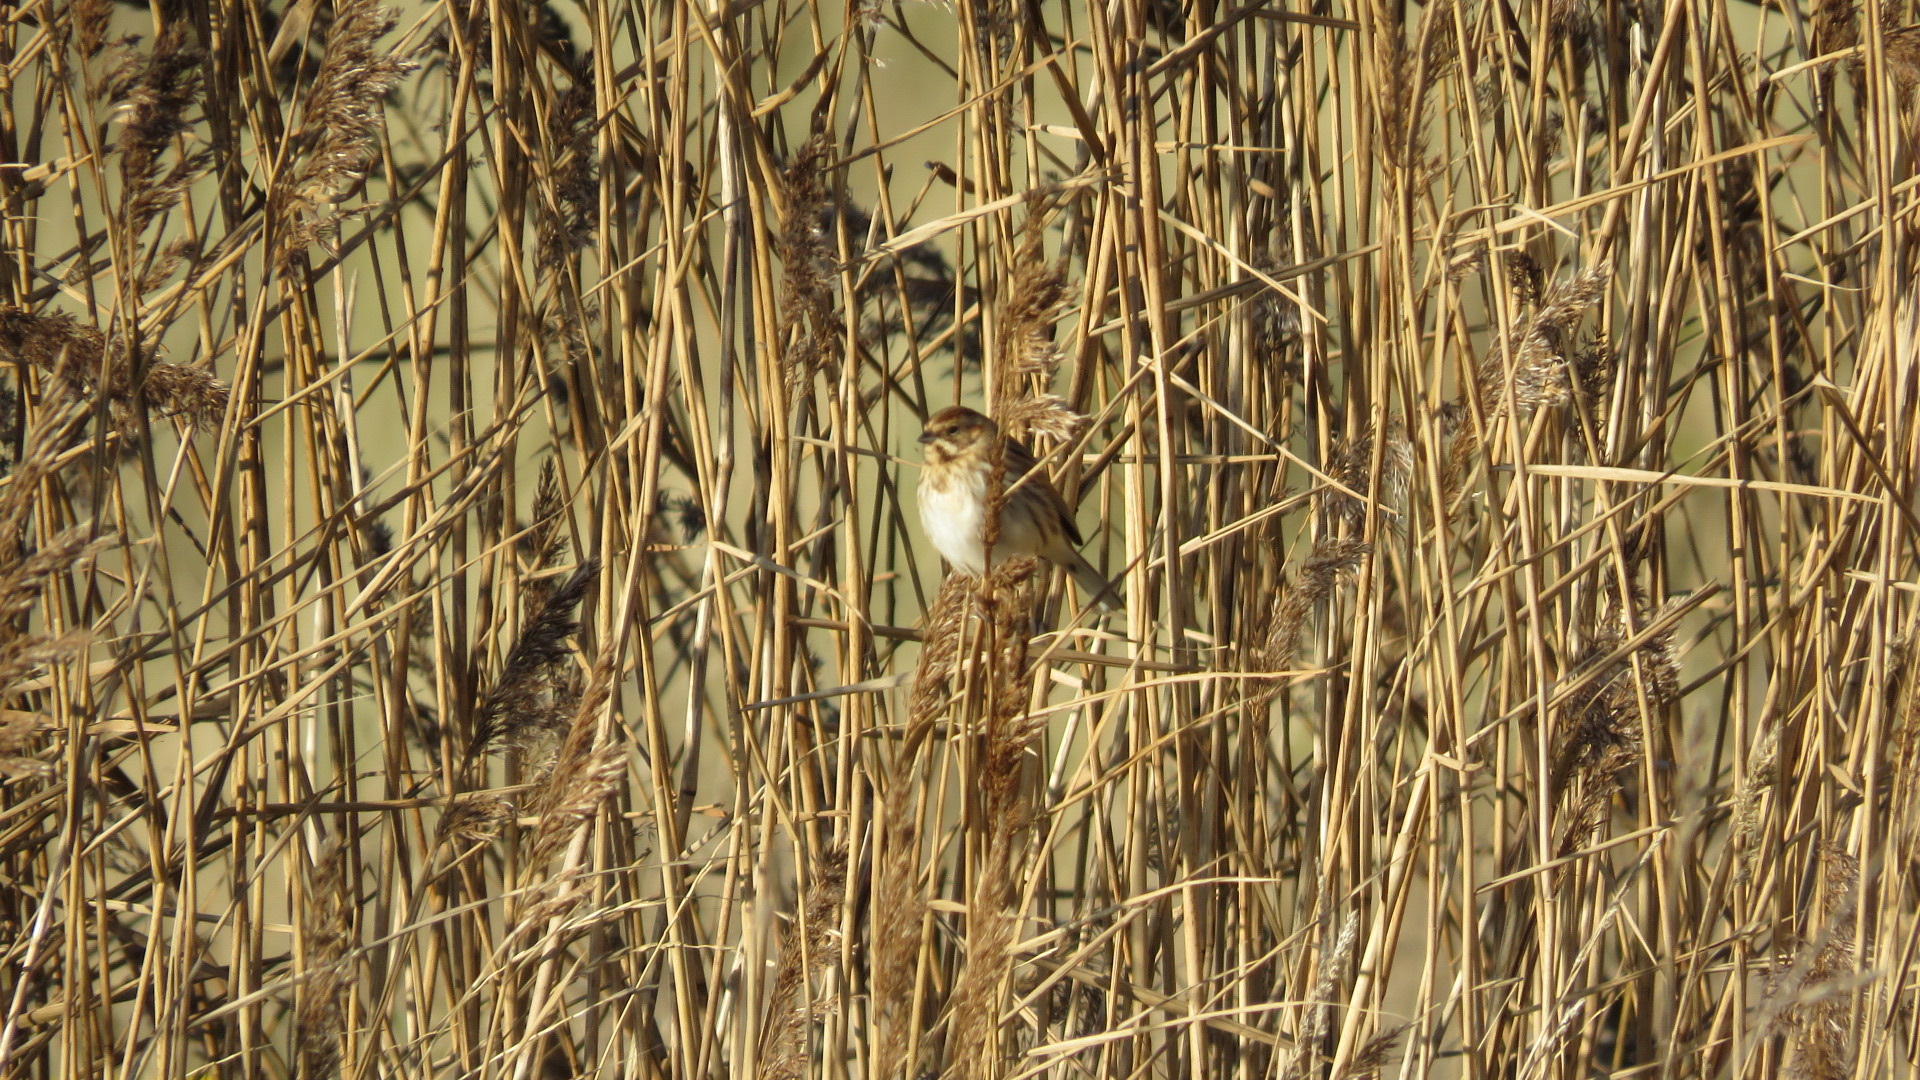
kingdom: Animalia
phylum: Chordata
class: Aves
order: Passeriformes
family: Emberizidae
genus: Emberiza
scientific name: Emberiza schoeniclus
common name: Reed bunting
